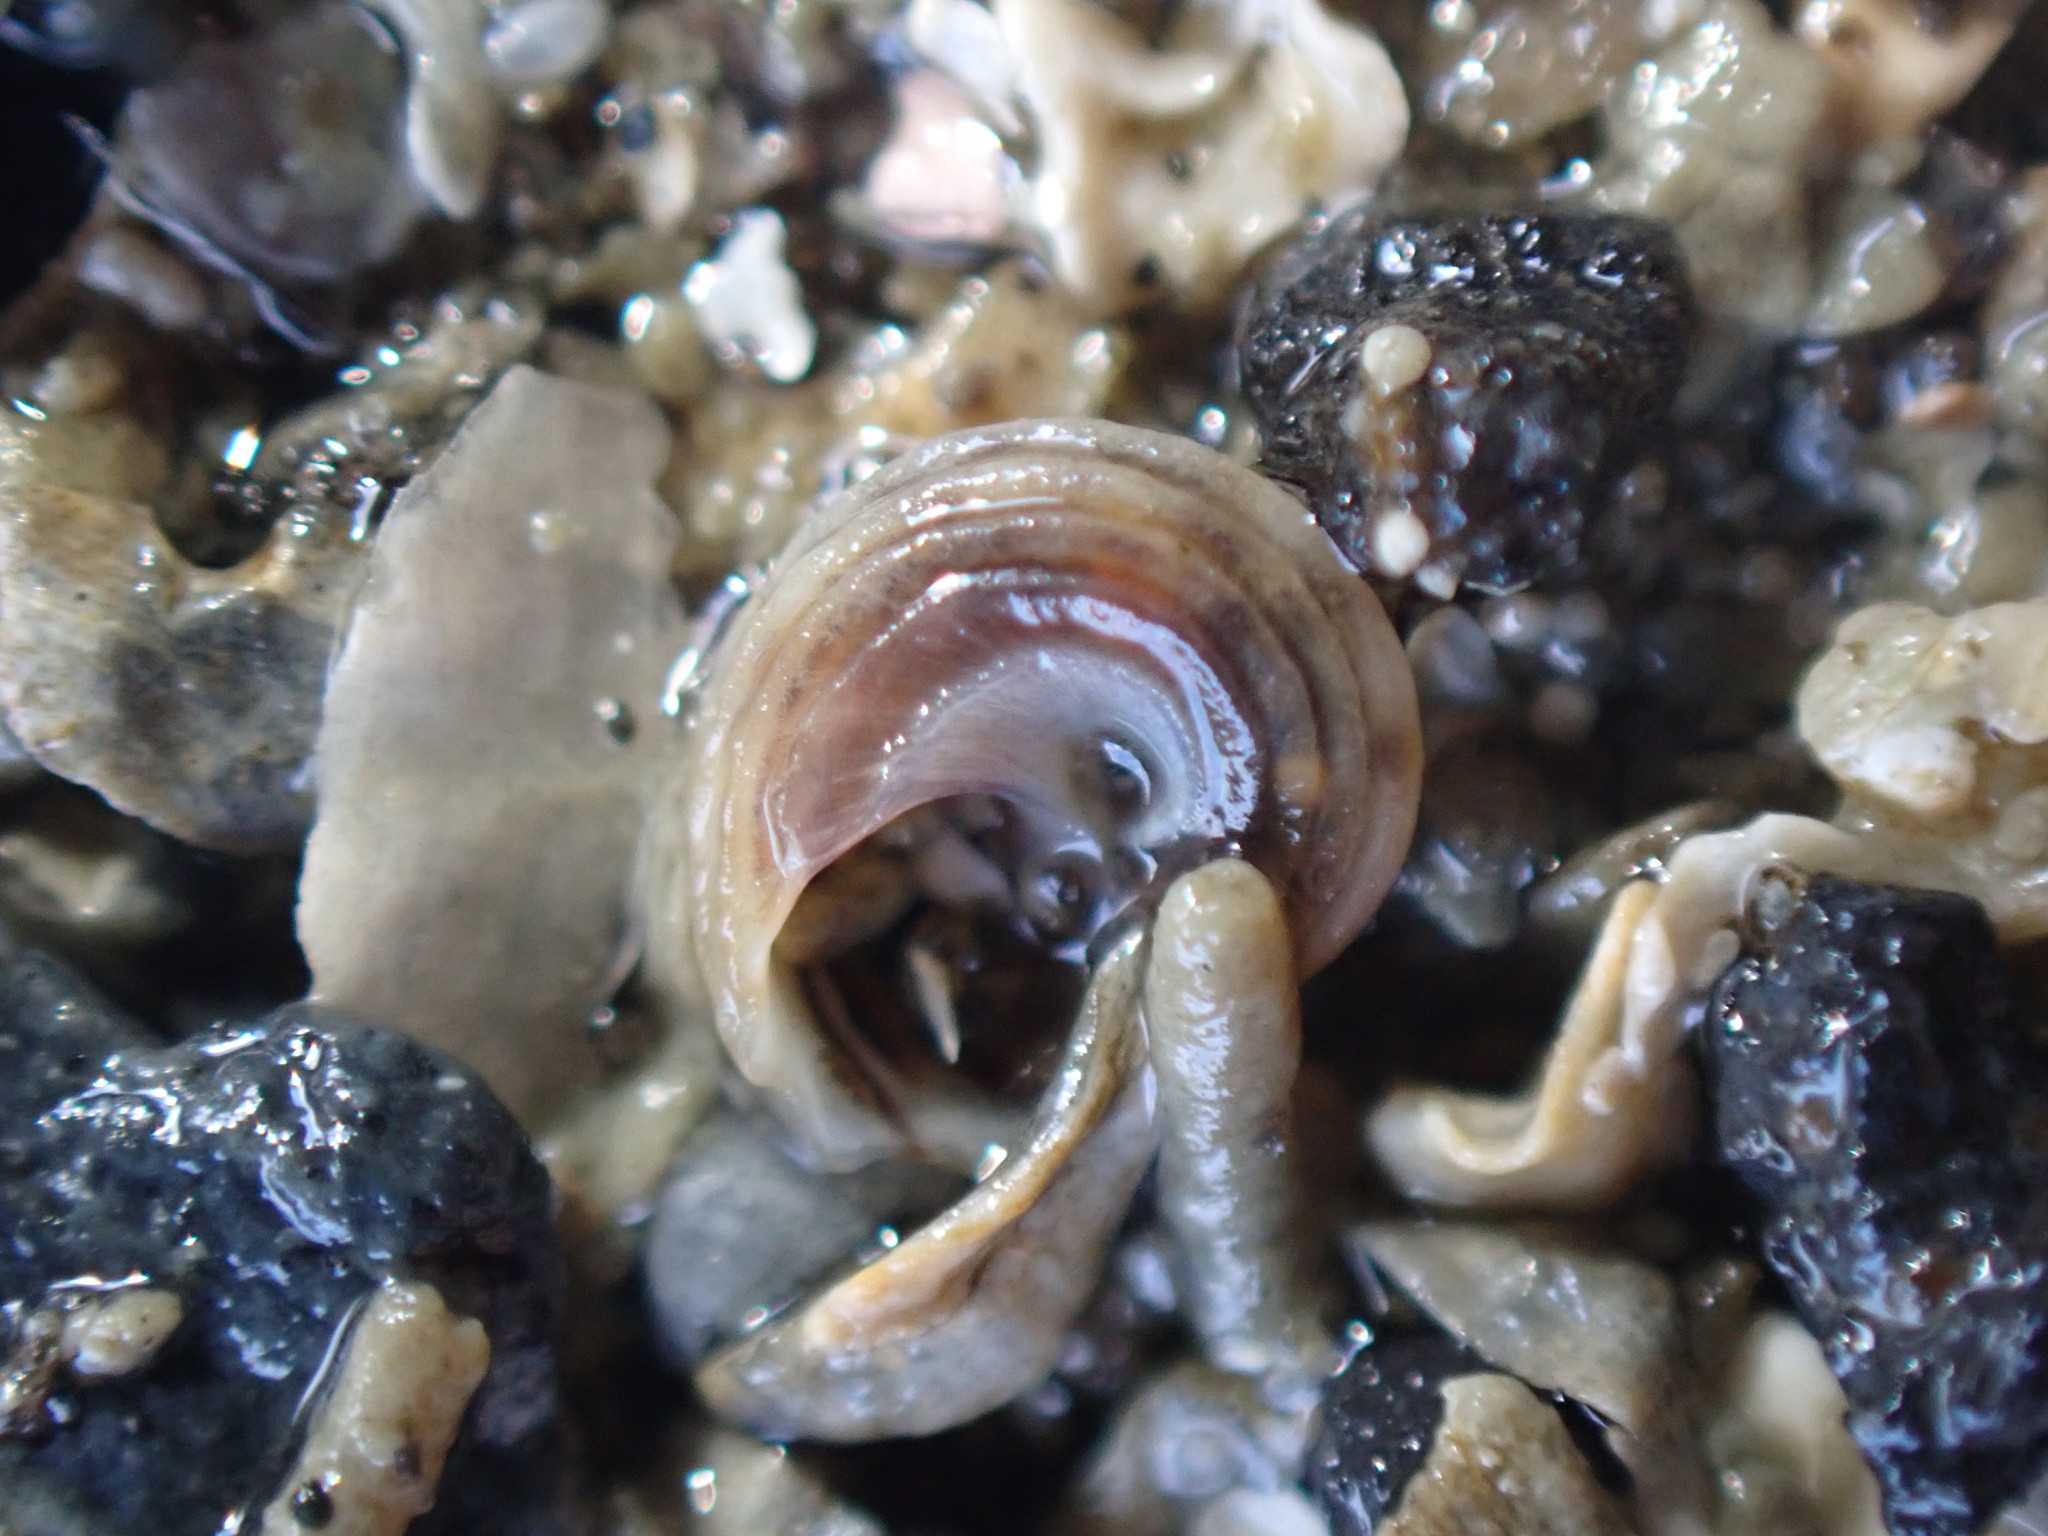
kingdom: Animalia
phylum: Mollusca
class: Gastropoda
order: Littorinimorpha
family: Littorinidae
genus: Risellopsis
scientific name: Risellopsis varia
